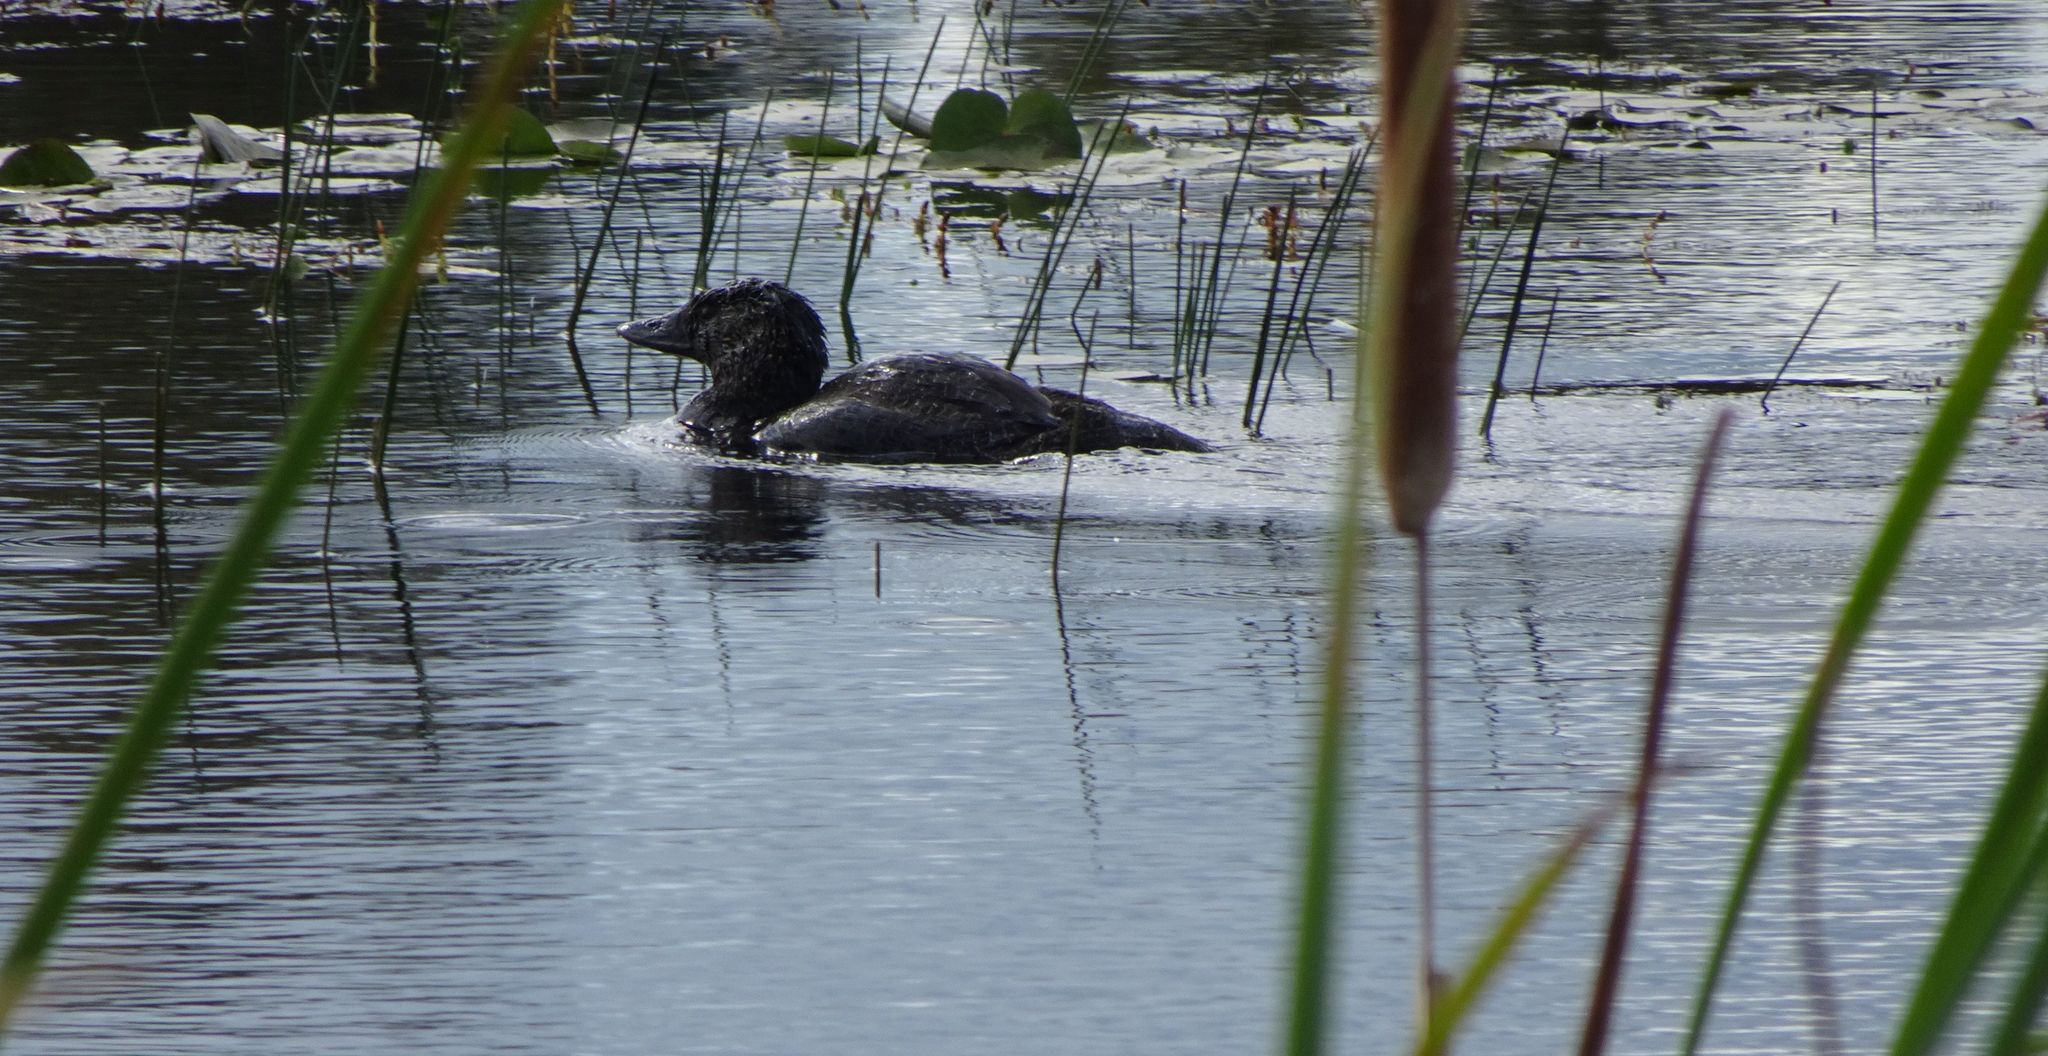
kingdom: Animalia
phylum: Chordata
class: Aves
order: Anseriformes
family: Anatidae
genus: Biziura
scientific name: Biziura lobata
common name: Musk duck
